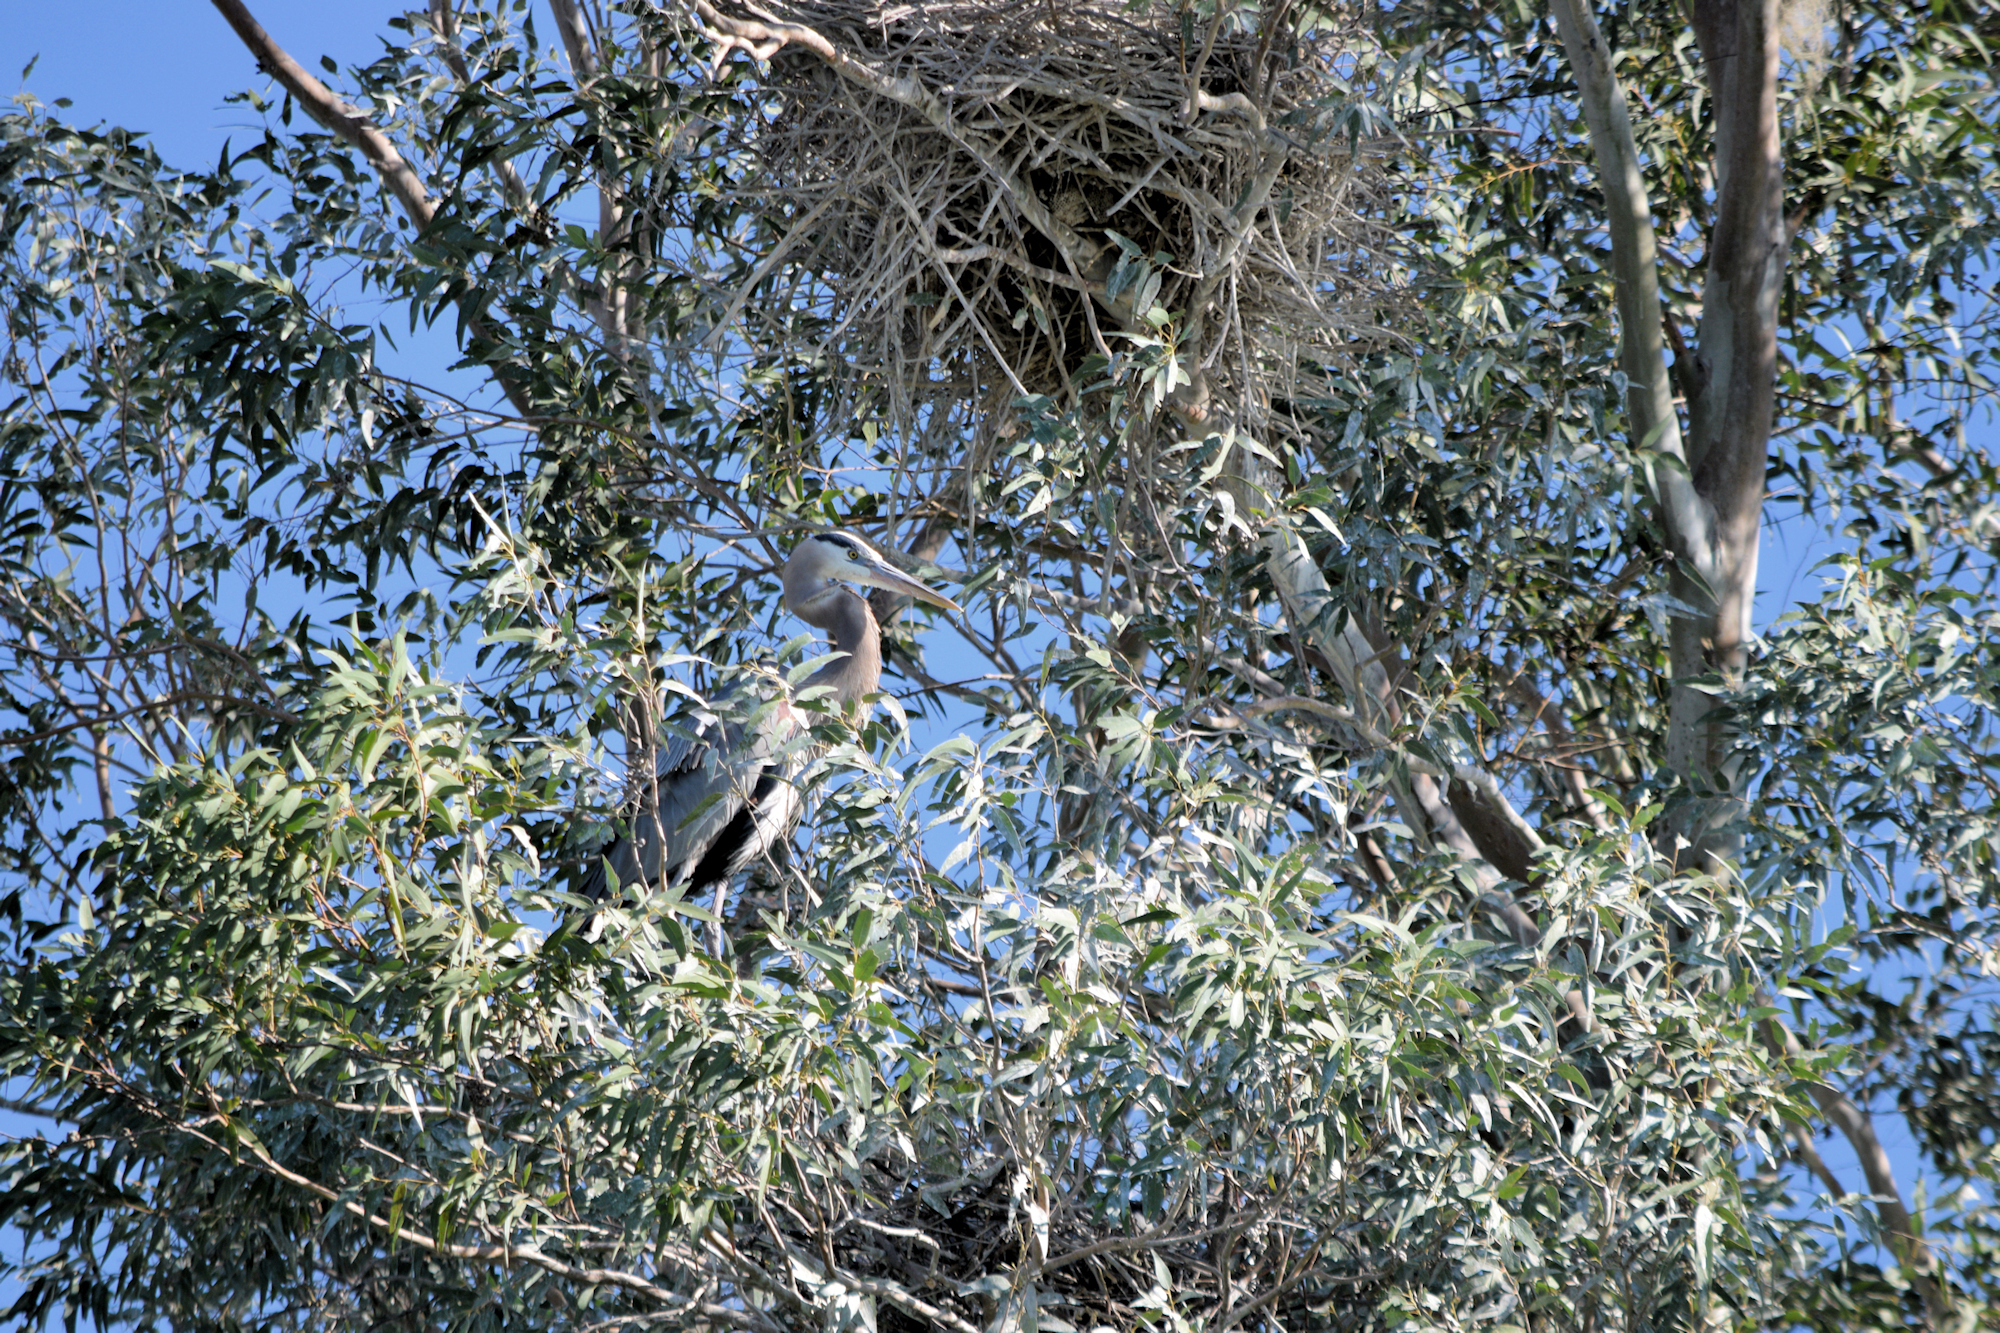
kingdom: Animalia
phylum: Chordata
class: Aves
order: Pelecaniformes
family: Ardeidae
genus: Ardea
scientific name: Ardea herodias
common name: Great blue heron
